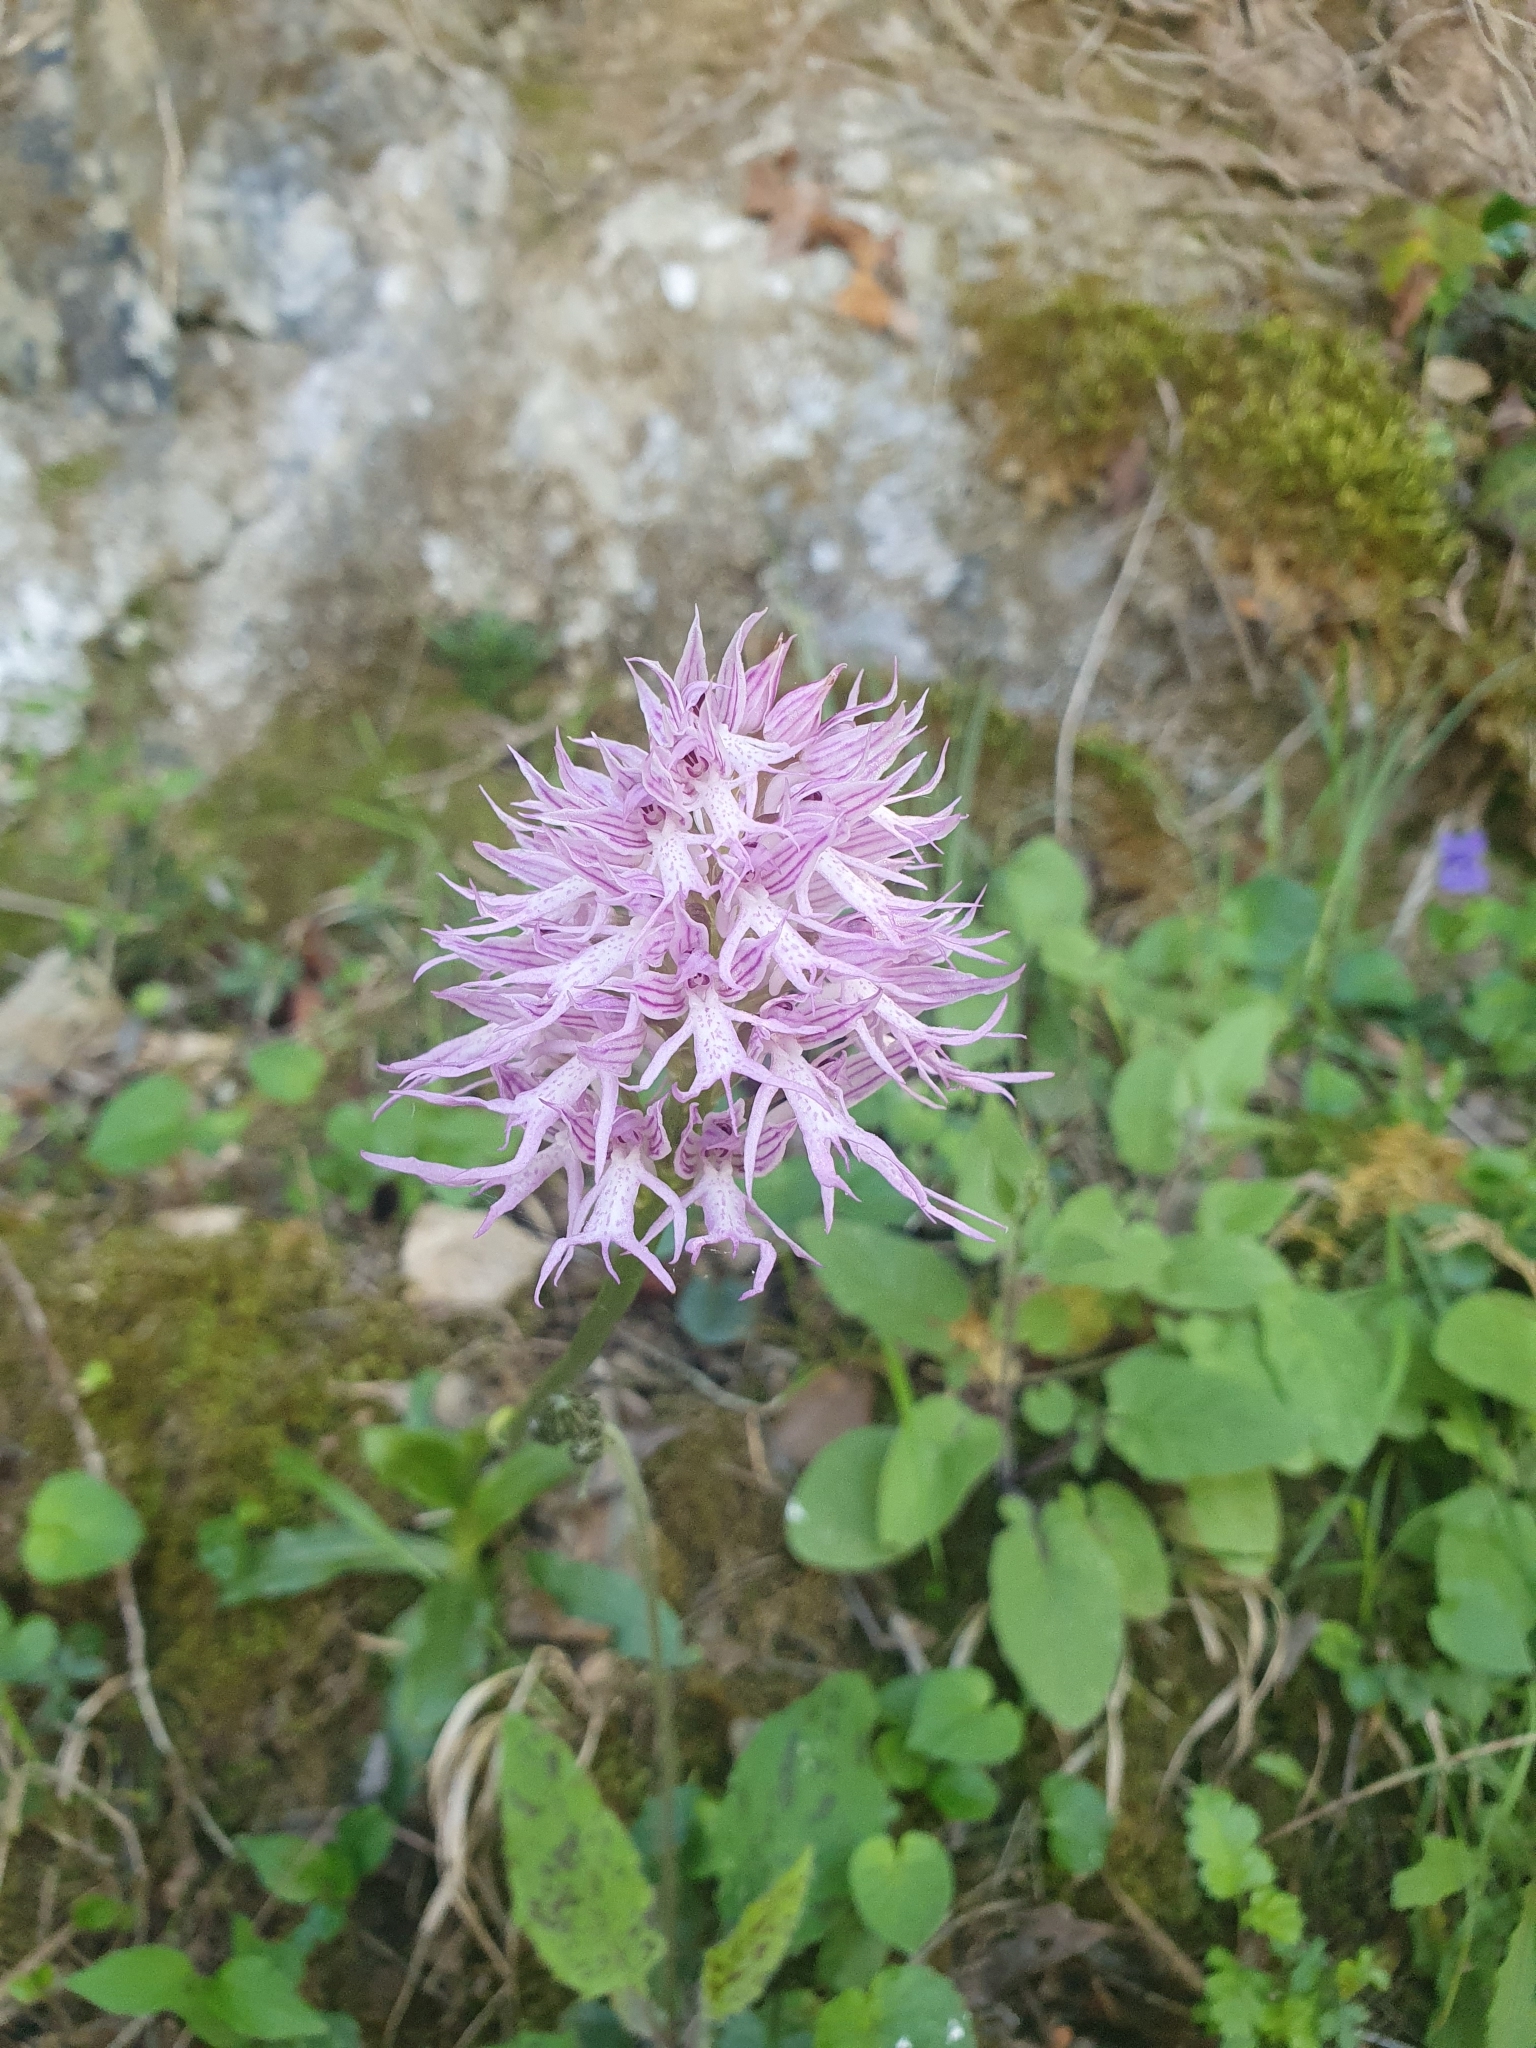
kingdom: Plantae
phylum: Tracheophyta
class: Liliopsida
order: Asparagales
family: Orchidaceae
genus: Orchis
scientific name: Orchis italica
